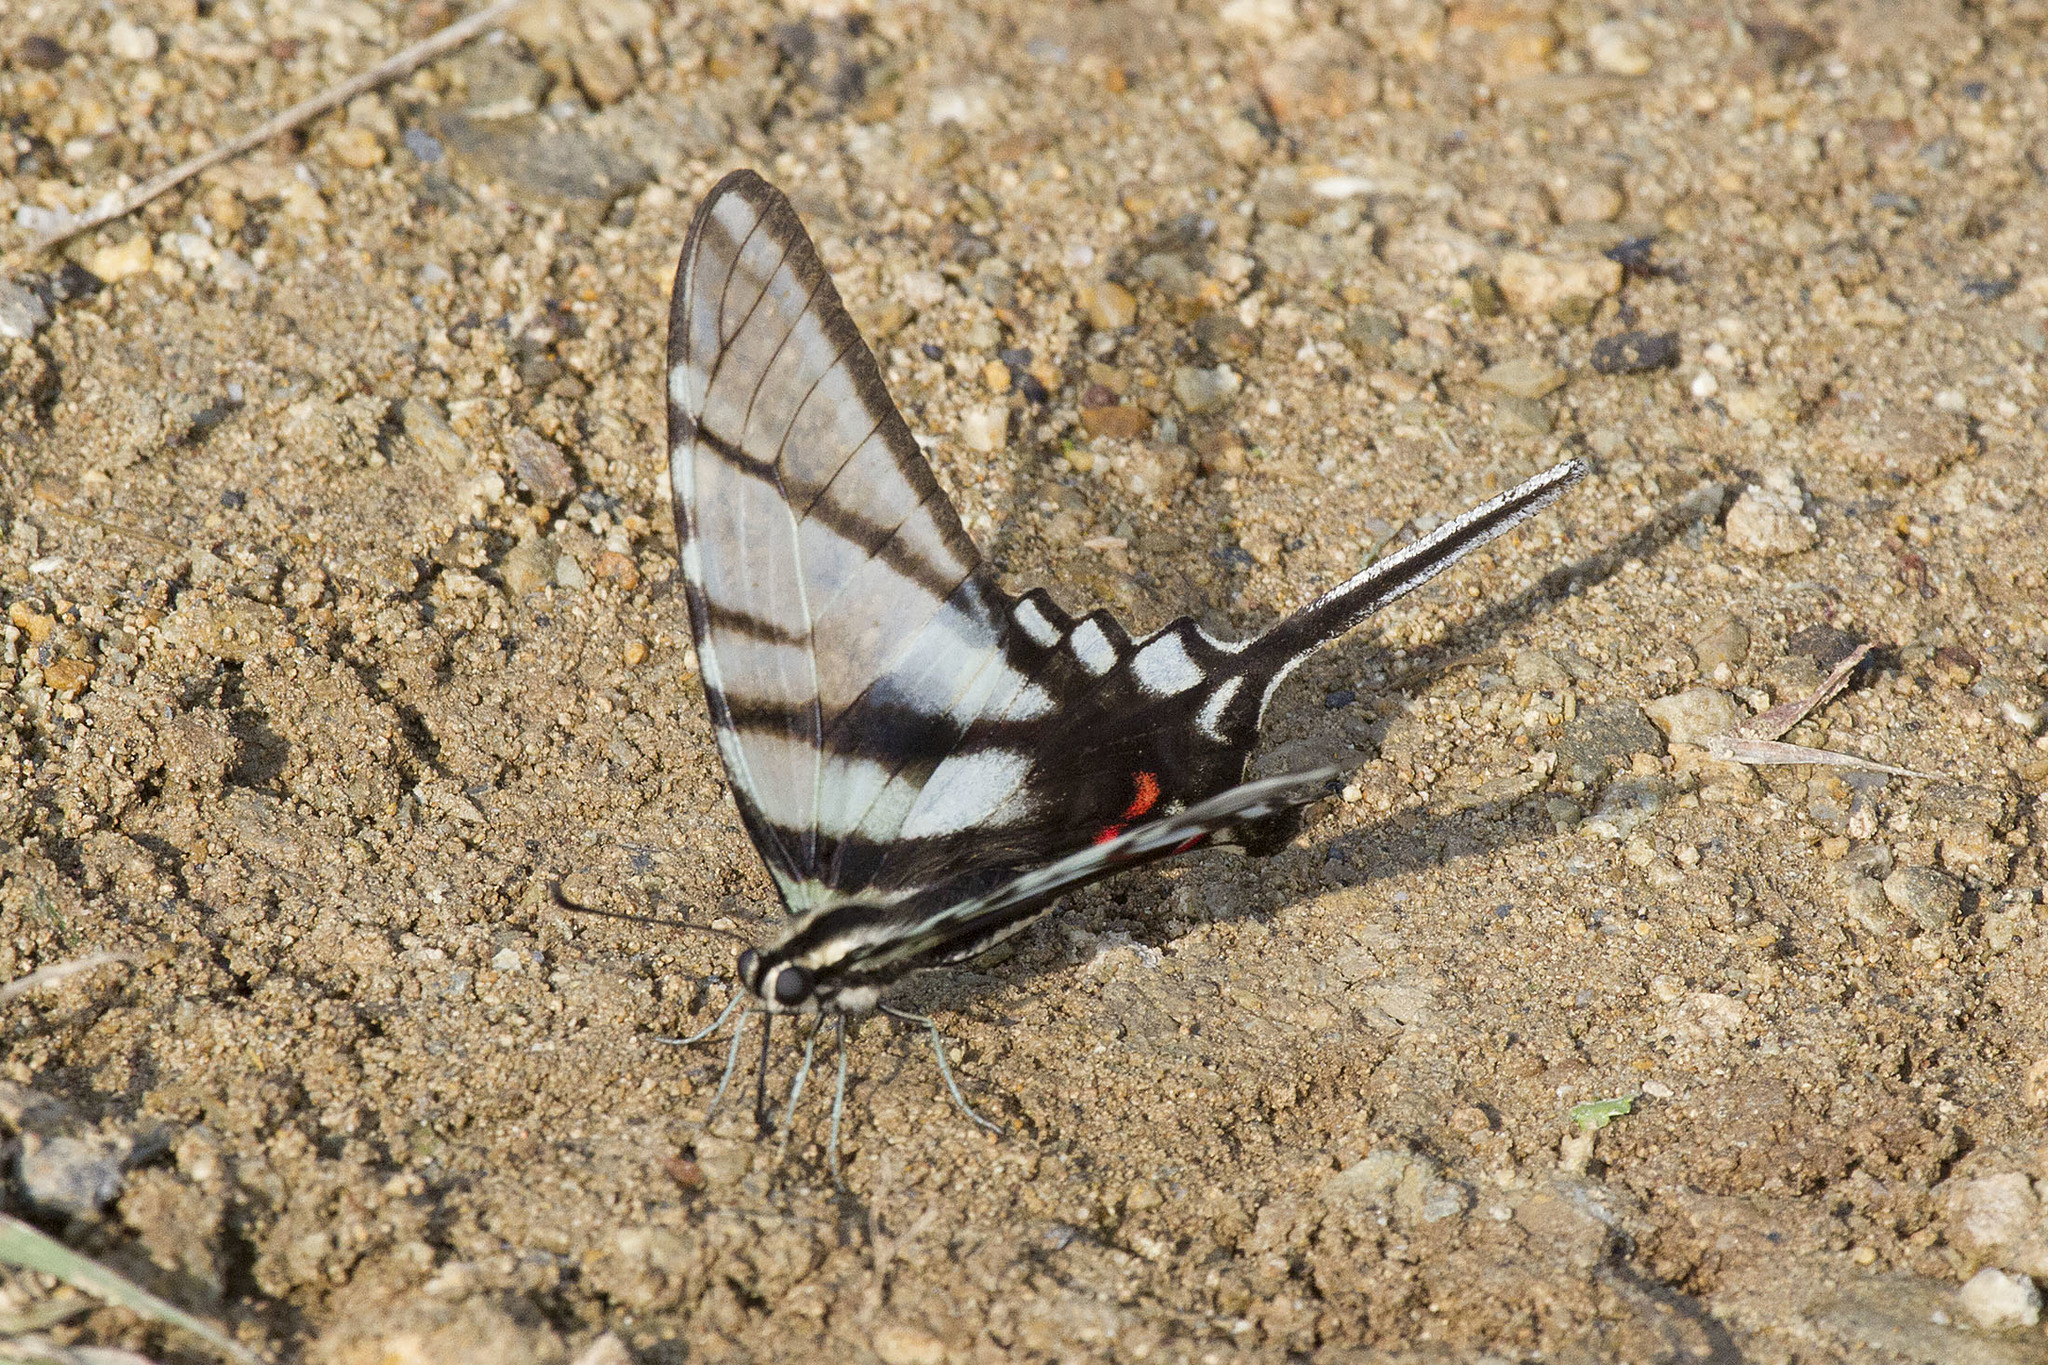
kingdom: Animalia
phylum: Arthropoda
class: Insecta
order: Lepidoptera
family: Papilionidae
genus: Protographium
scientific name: Protographium epidaus
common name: Mexican kite swallowtail
